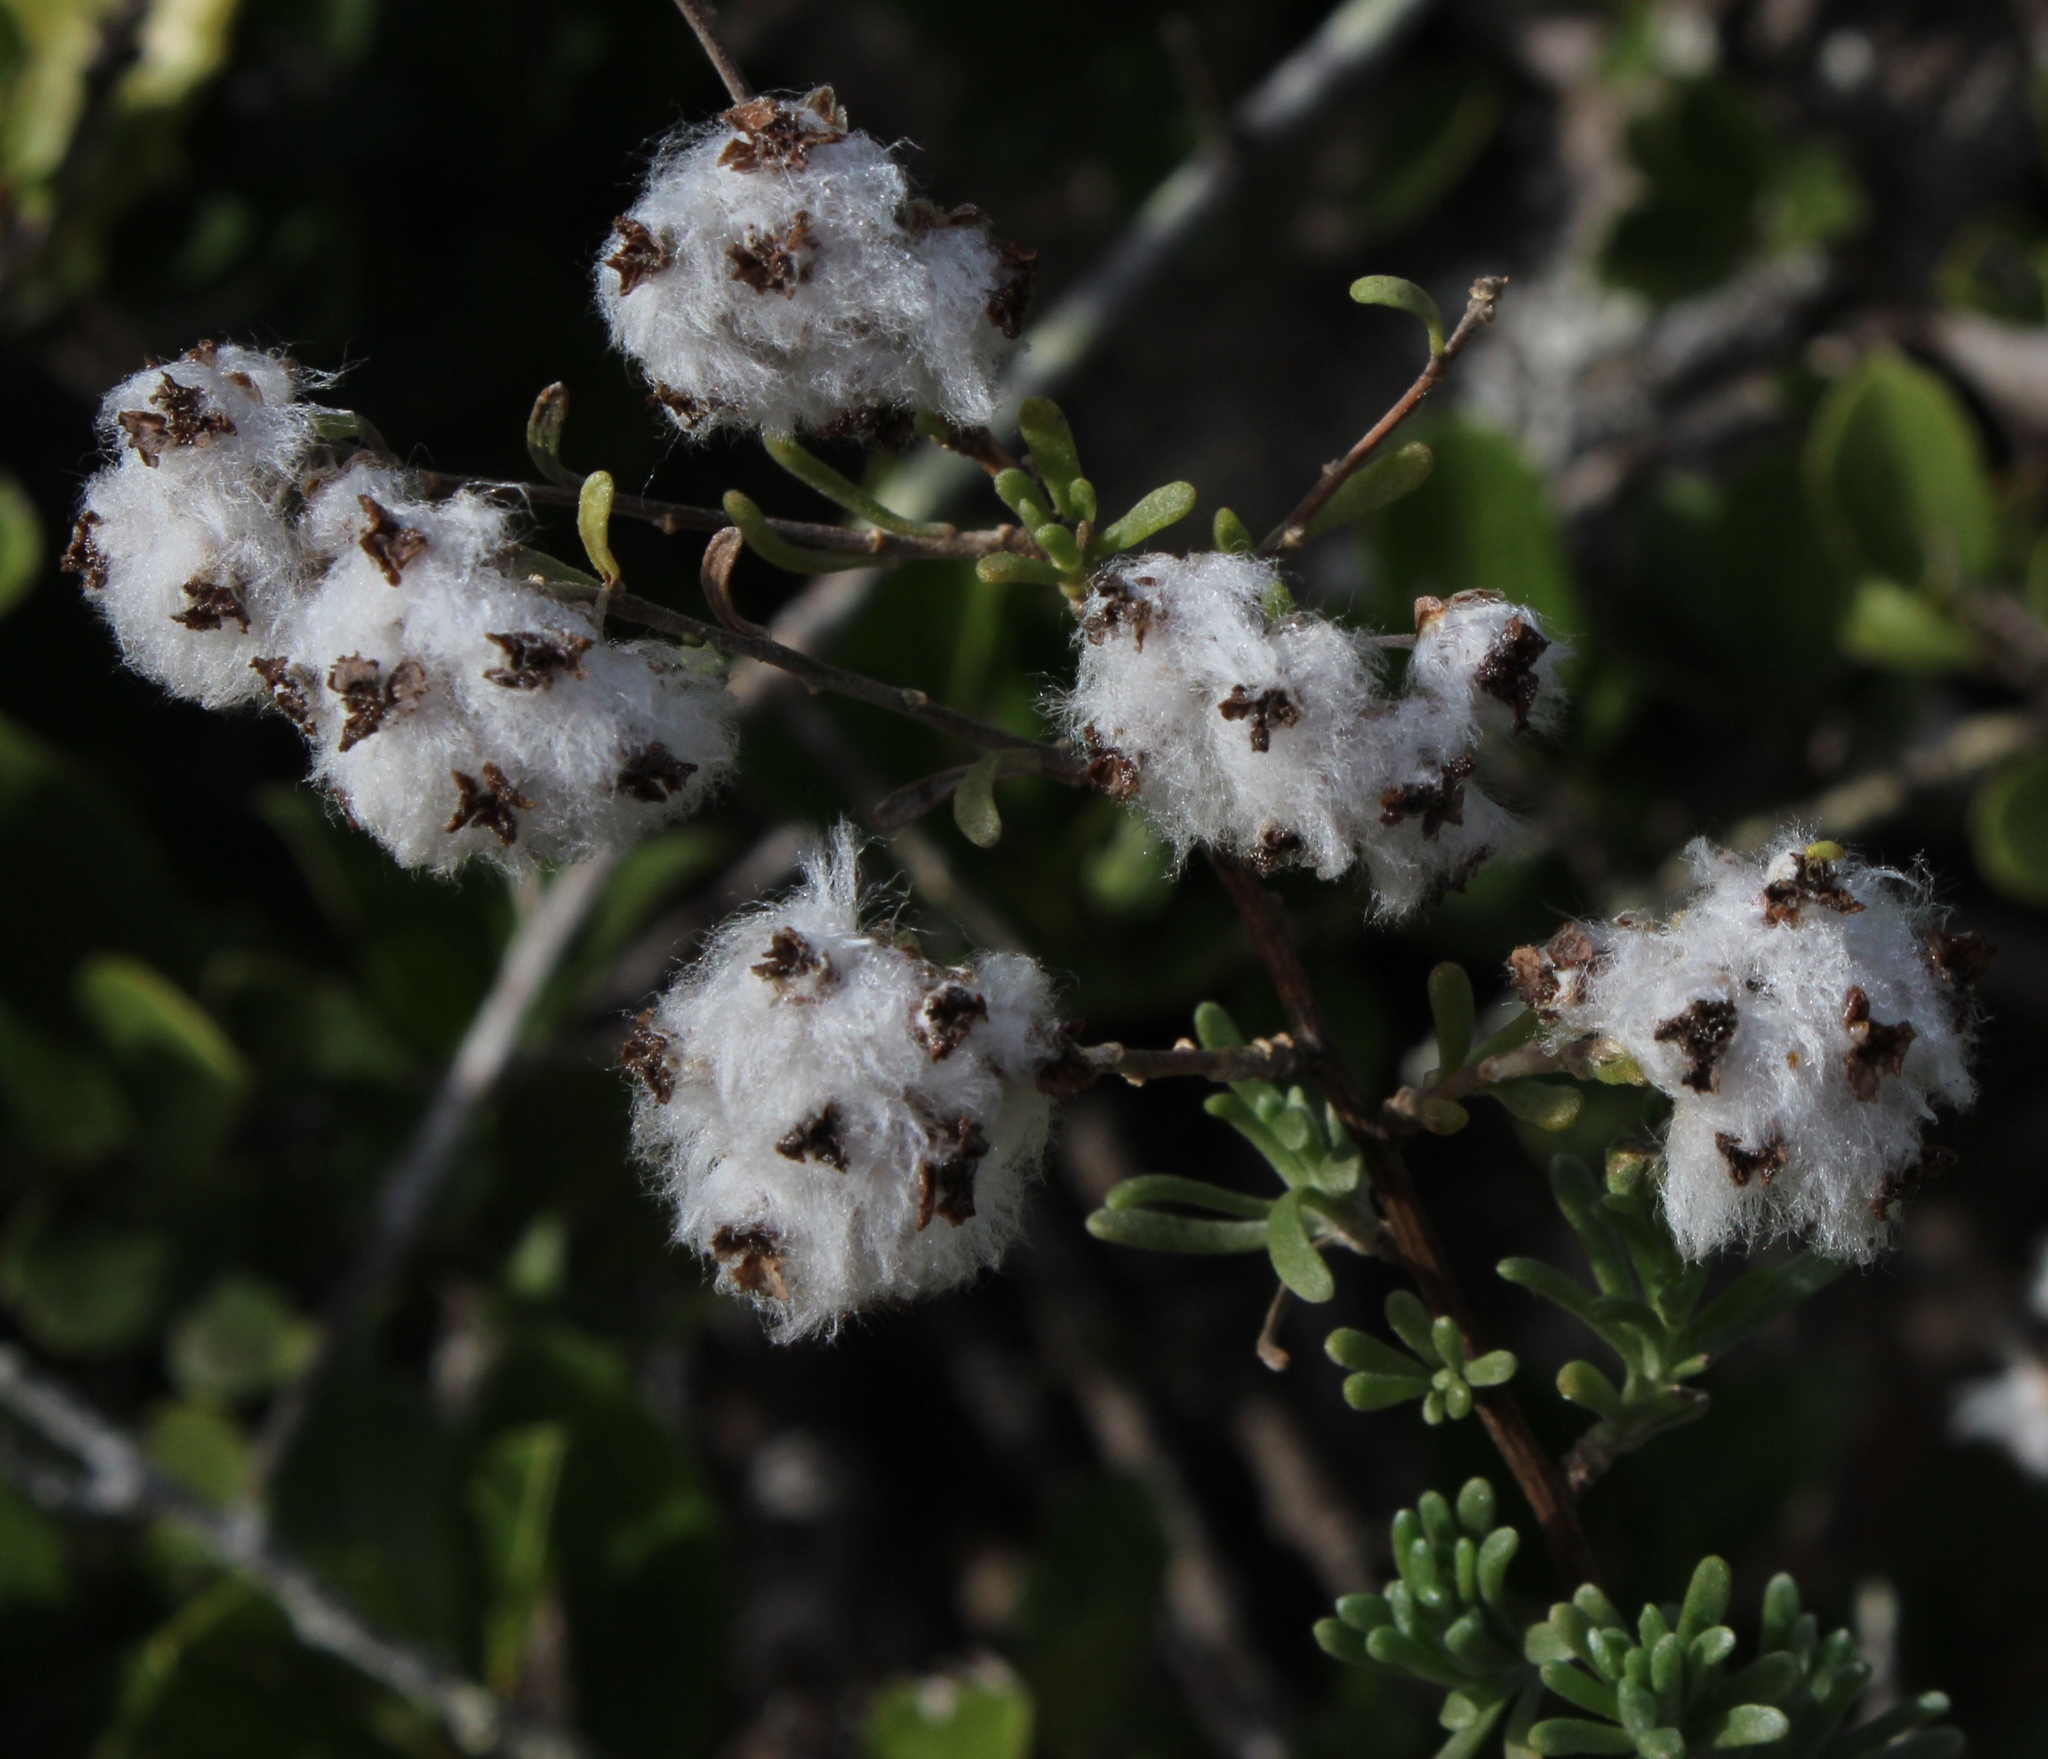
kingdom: Plantae
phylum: Tracheophyta
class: Magnoliopsida
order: Asterales
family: Asteraceae
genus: Eriocephalus
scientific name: Eriocephalus africanus
